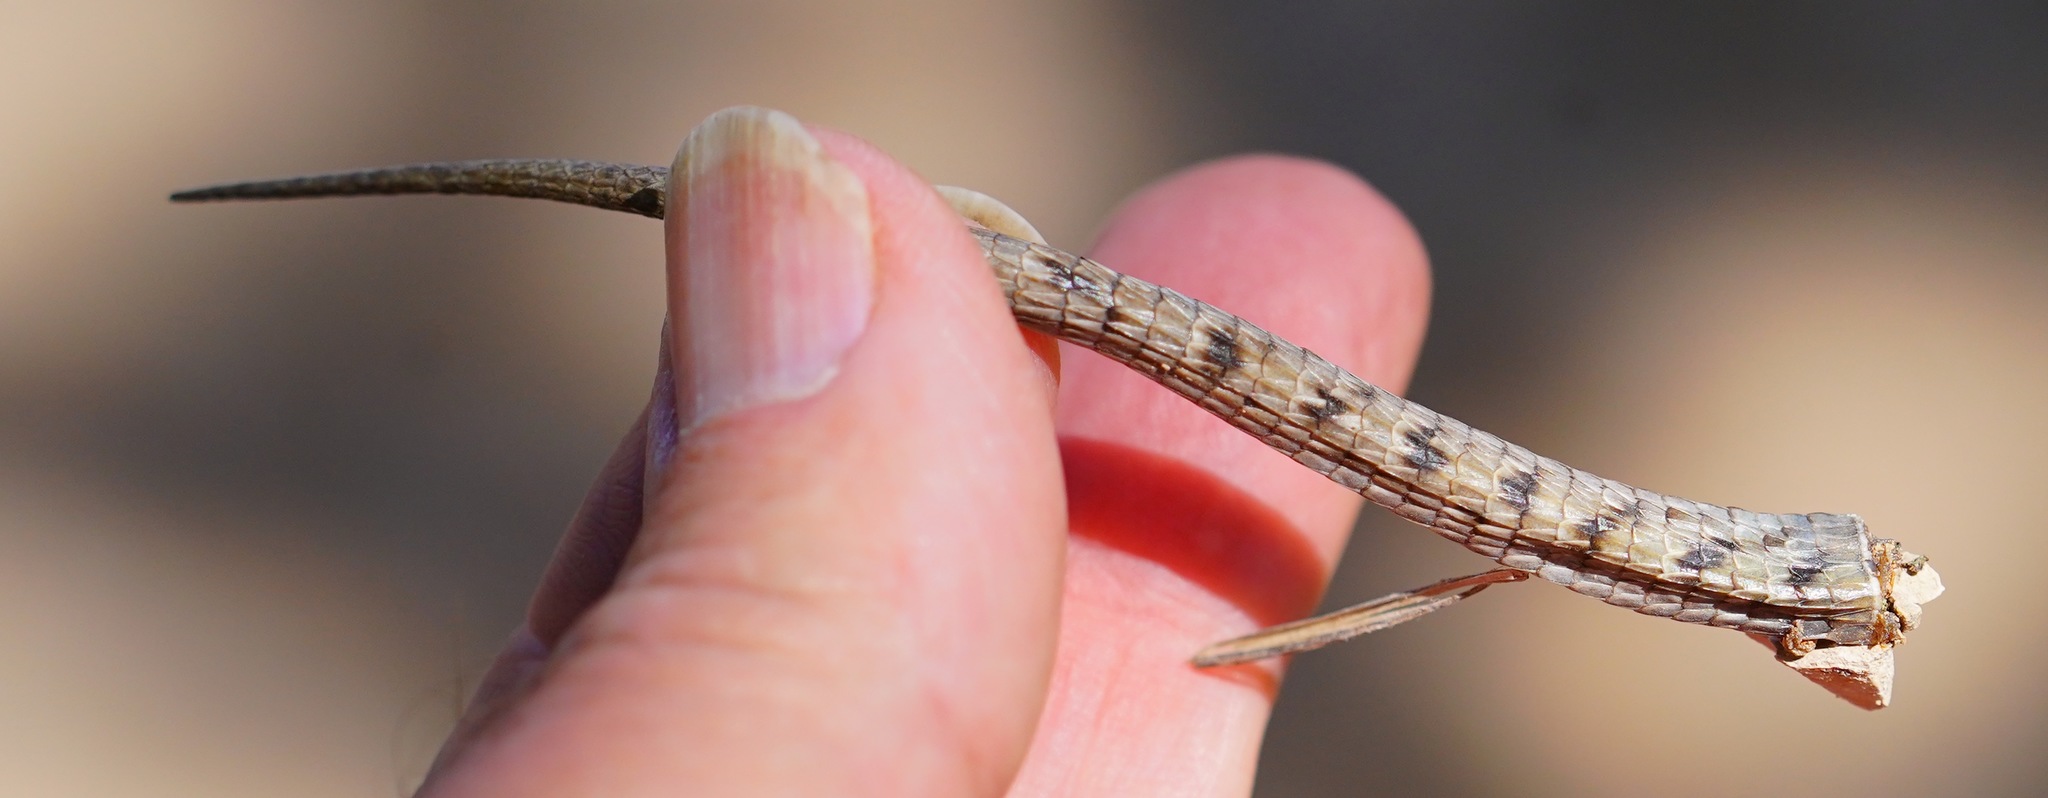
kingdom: Animalia
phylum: Chordata
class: Squamata
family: Anguidae
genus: Elgaria
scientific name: Elgaria multicarinata
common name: Southern alligator lizard
